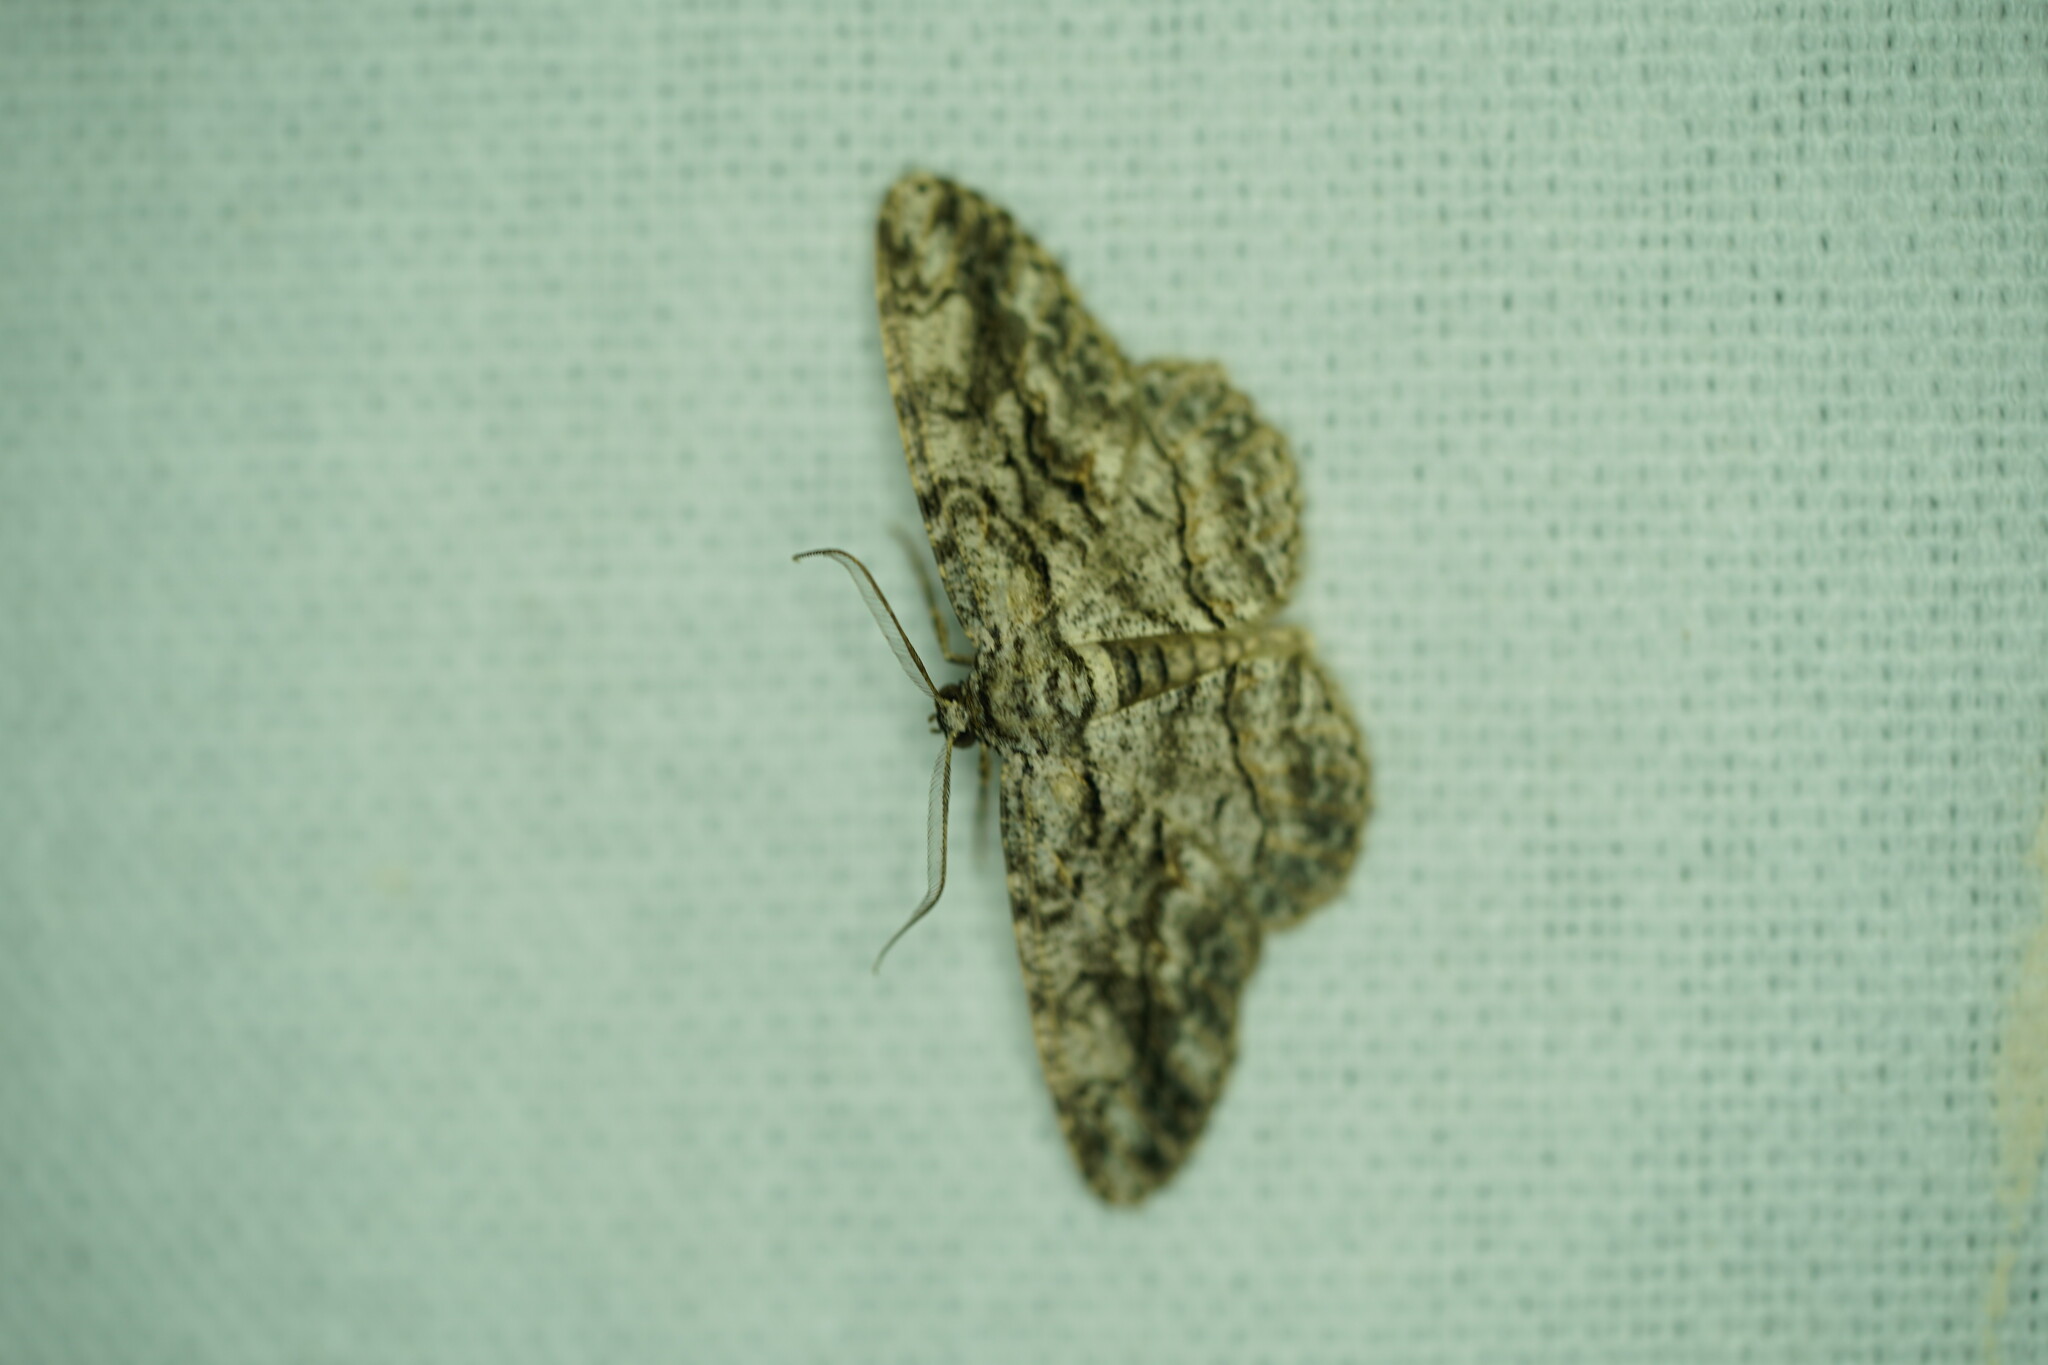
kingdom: Animalia
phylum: Arthropoda
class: Insecta
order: Lepidoptera
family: Geometridae
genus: Anavitrinella
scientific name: Anavitrinella pampinaria
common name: Common gray
